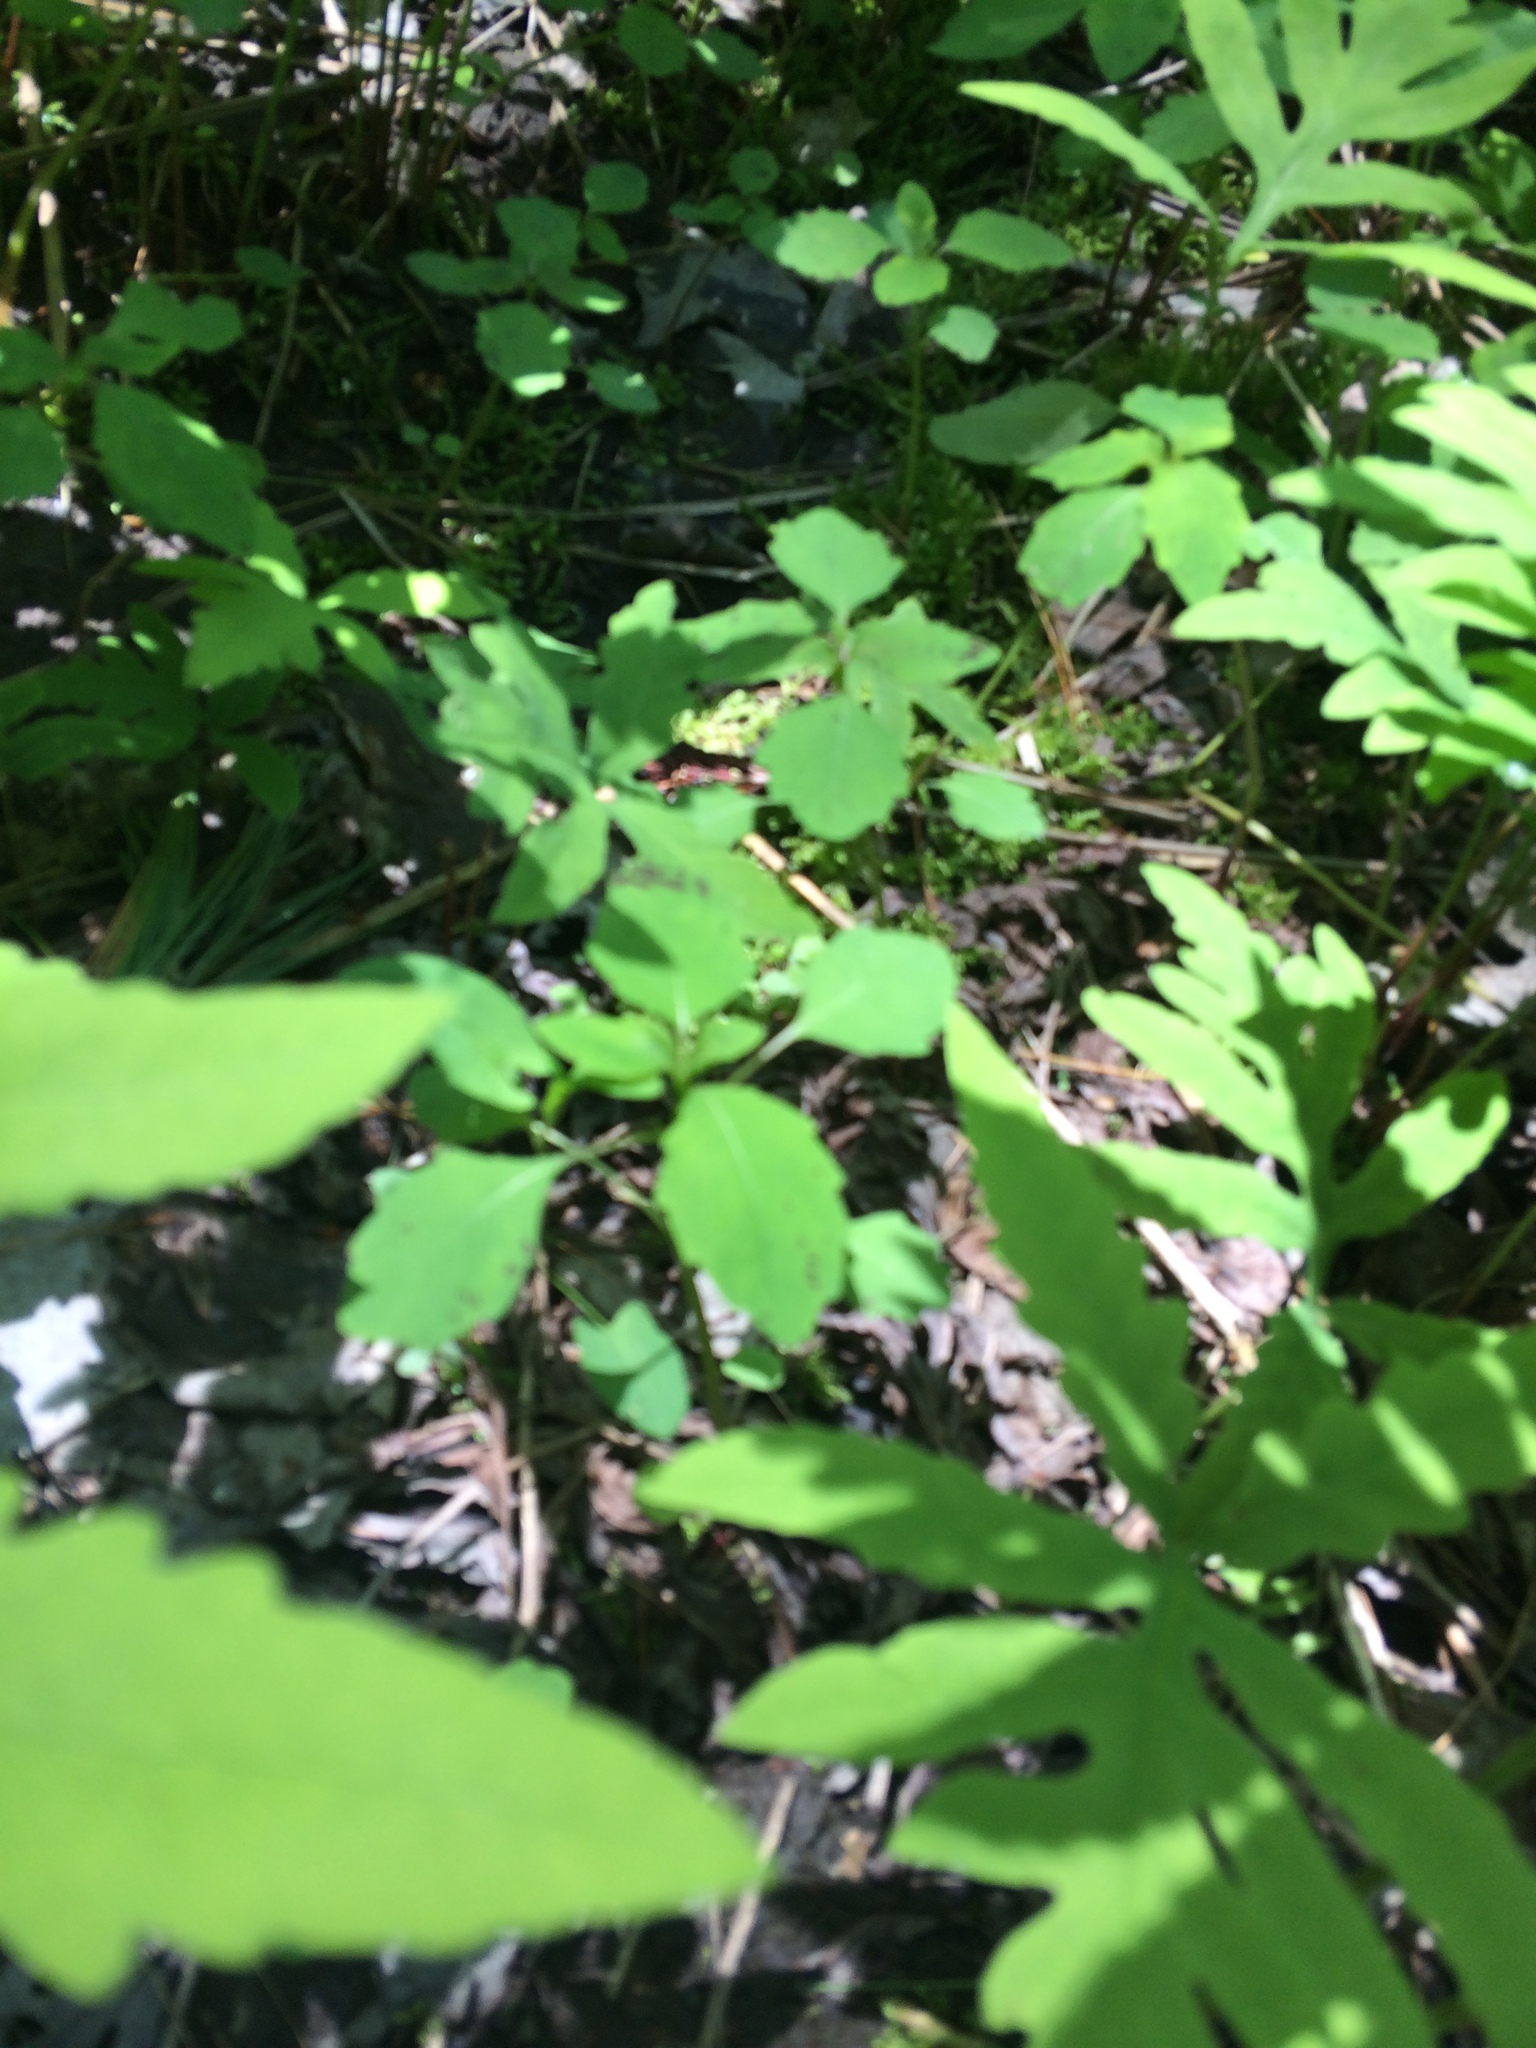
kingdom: Plantae
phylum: Tracheophyta
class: Magnoliopsida
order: Ericales
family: Balsaminaceae
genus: Impatiens
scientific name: Impatiens capensis
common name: Orange balsam
